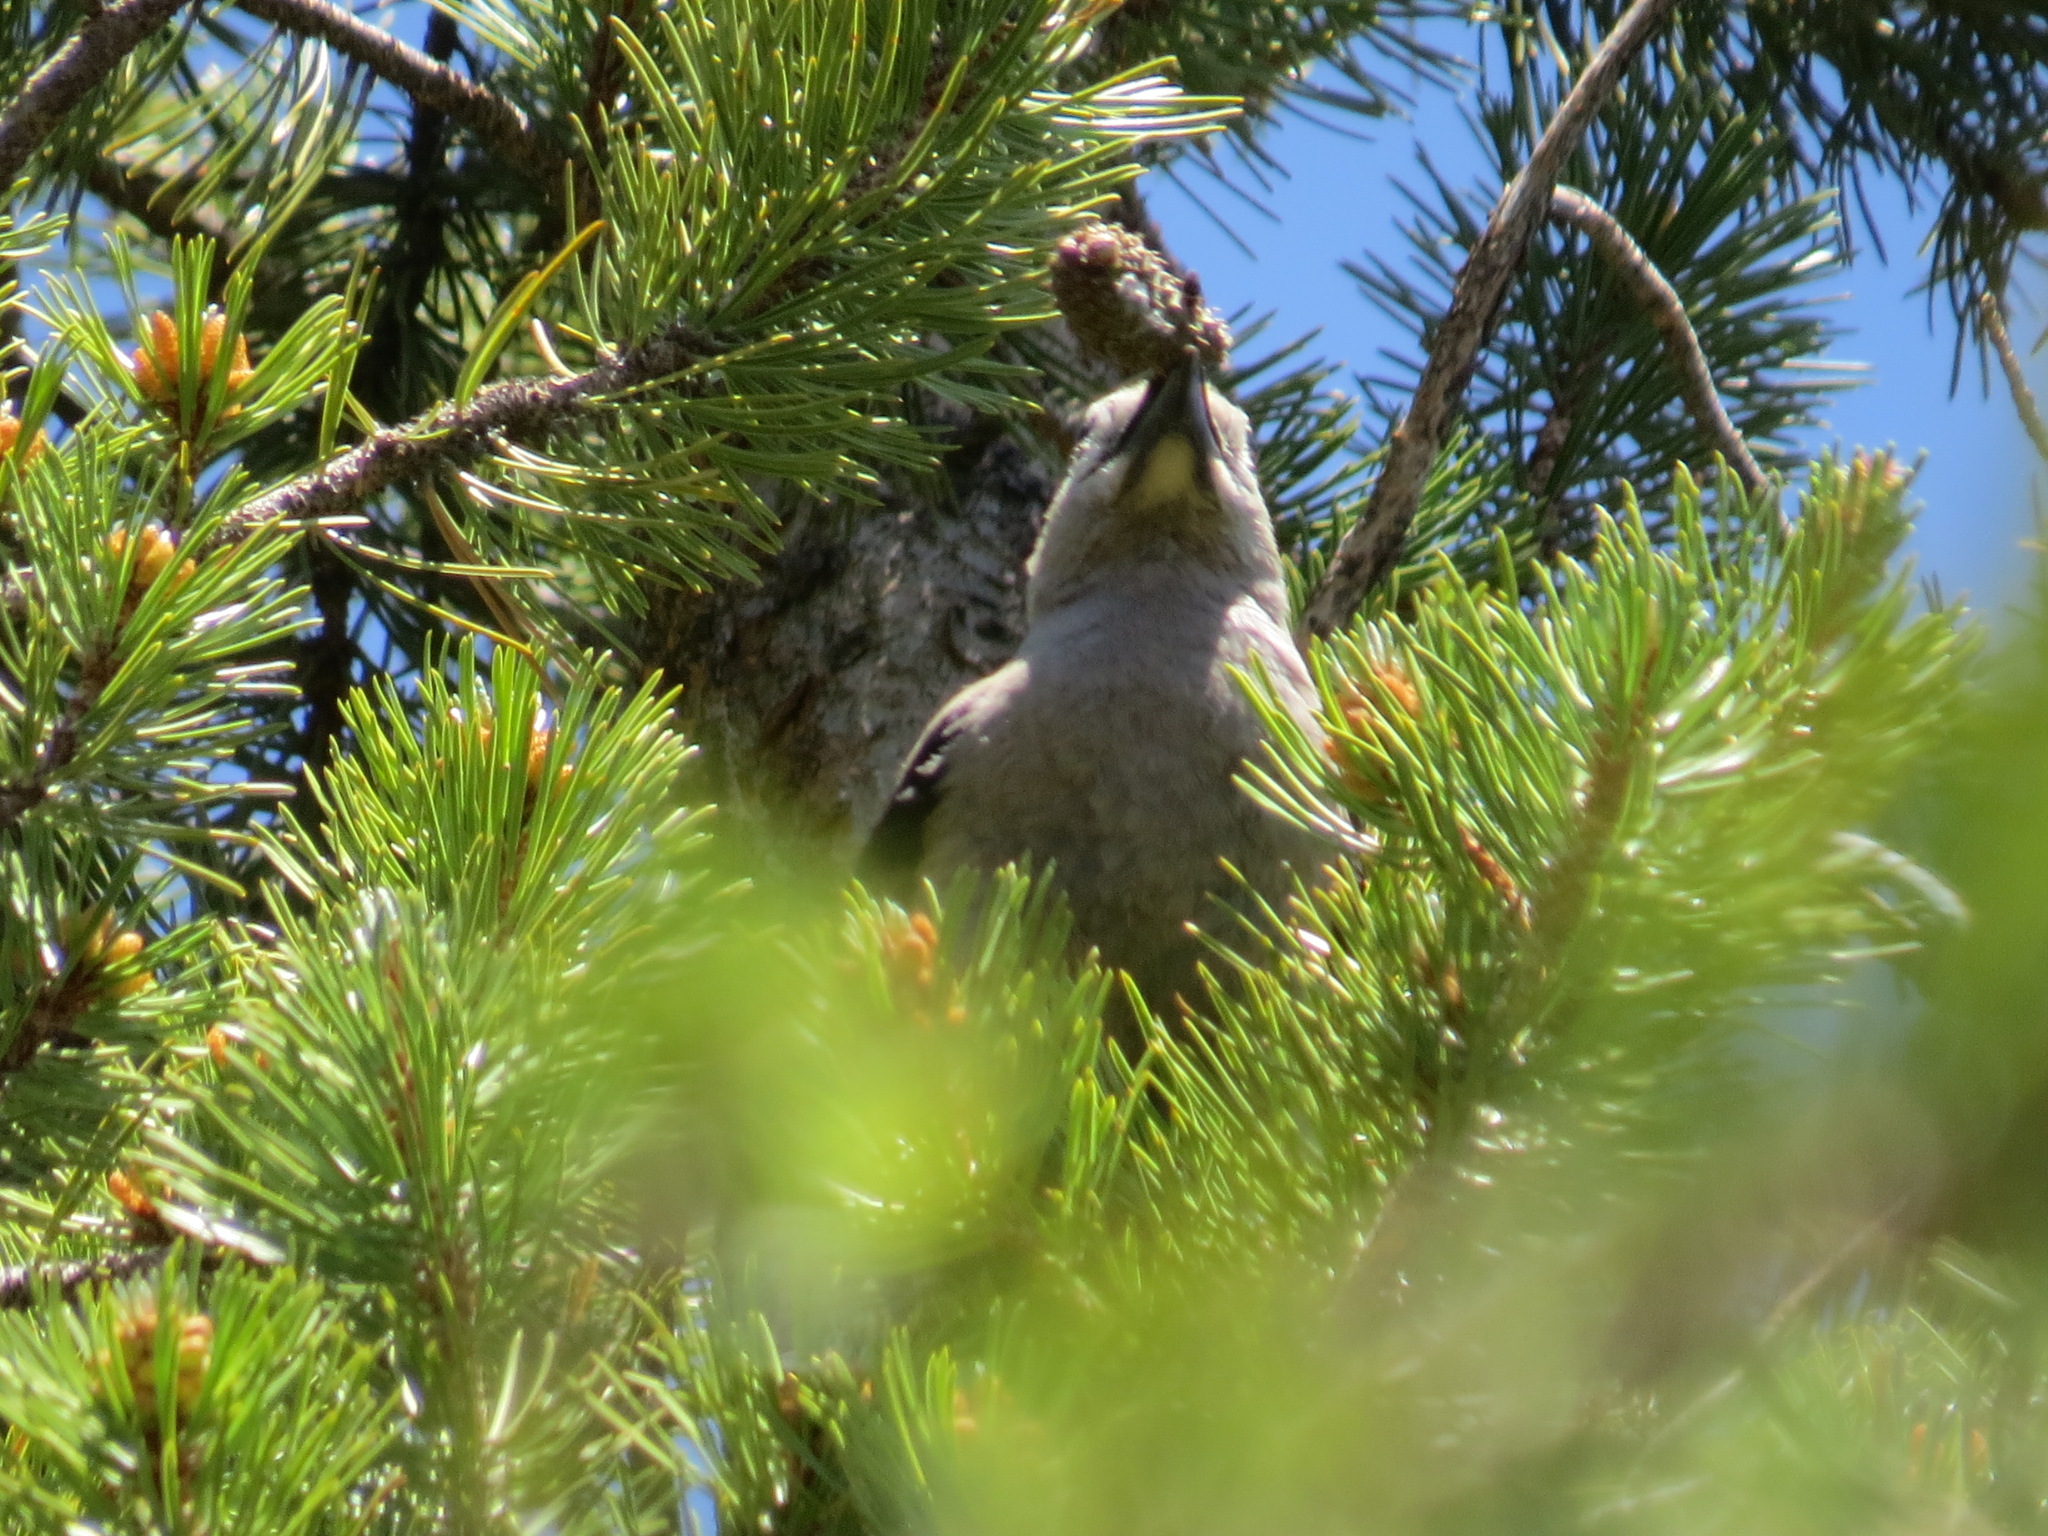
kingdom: Animalia
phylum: Chordata
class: Aves
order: Passeriformes
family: Corvidae
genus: Nucifraga
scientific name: Nucifraga columbiana
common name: Clark's nutcracker
